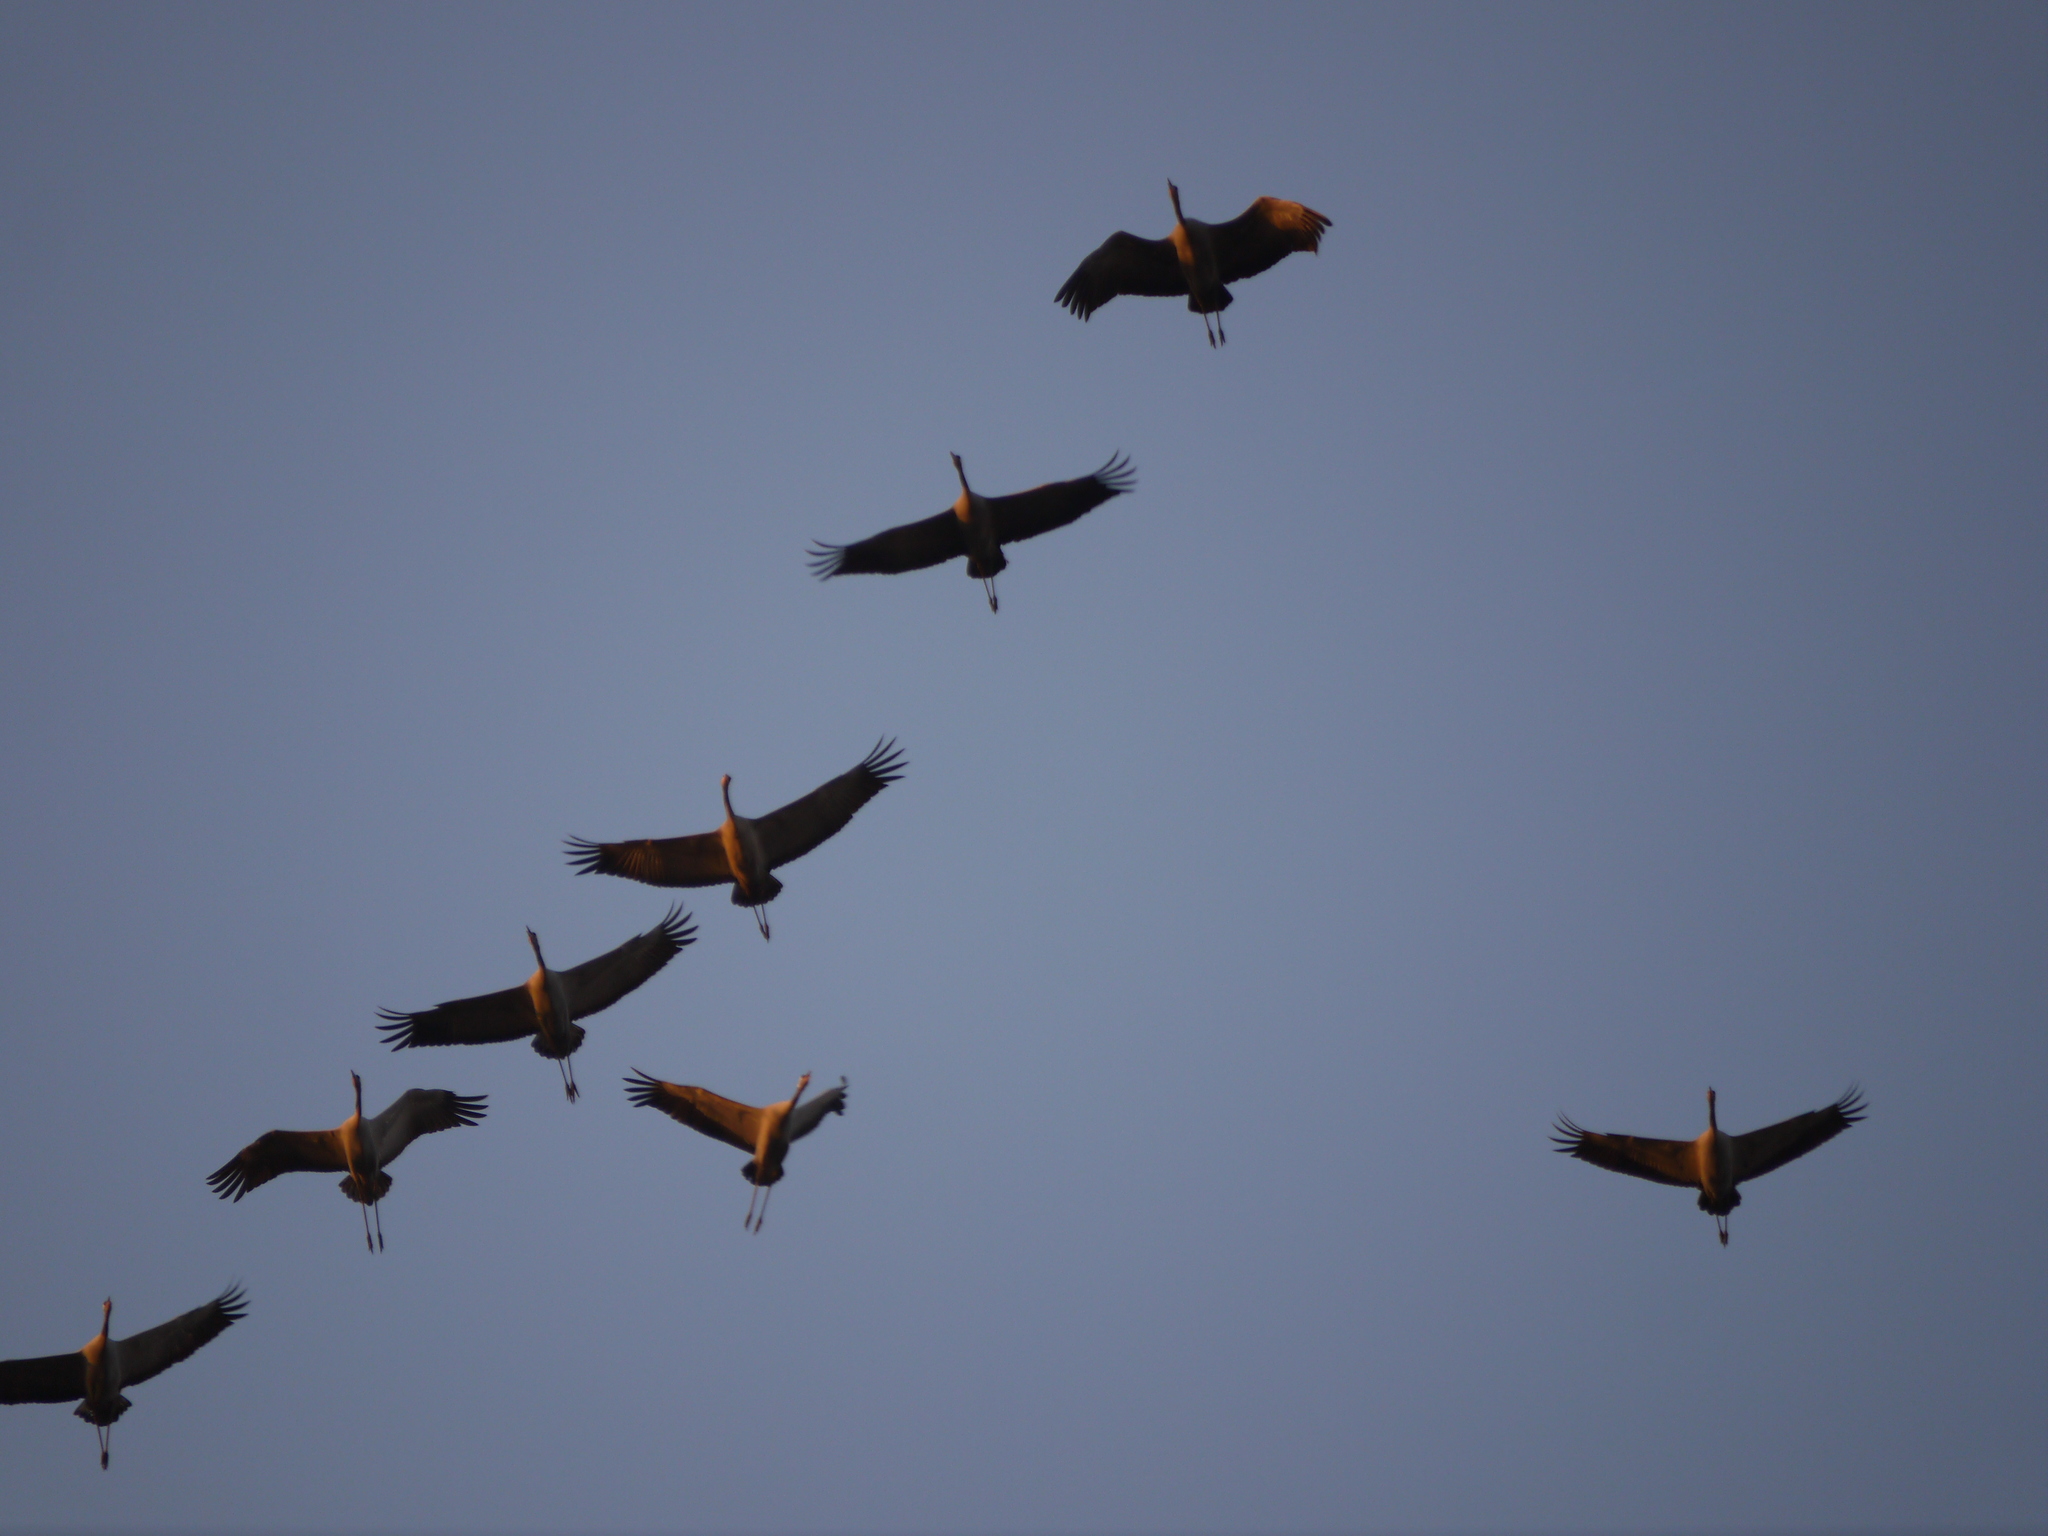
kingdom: Animalia
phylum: Chordata
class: Aves
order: Gruiformes
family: Gruidae
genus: Grus
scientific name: Grus grus
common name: Common crane
